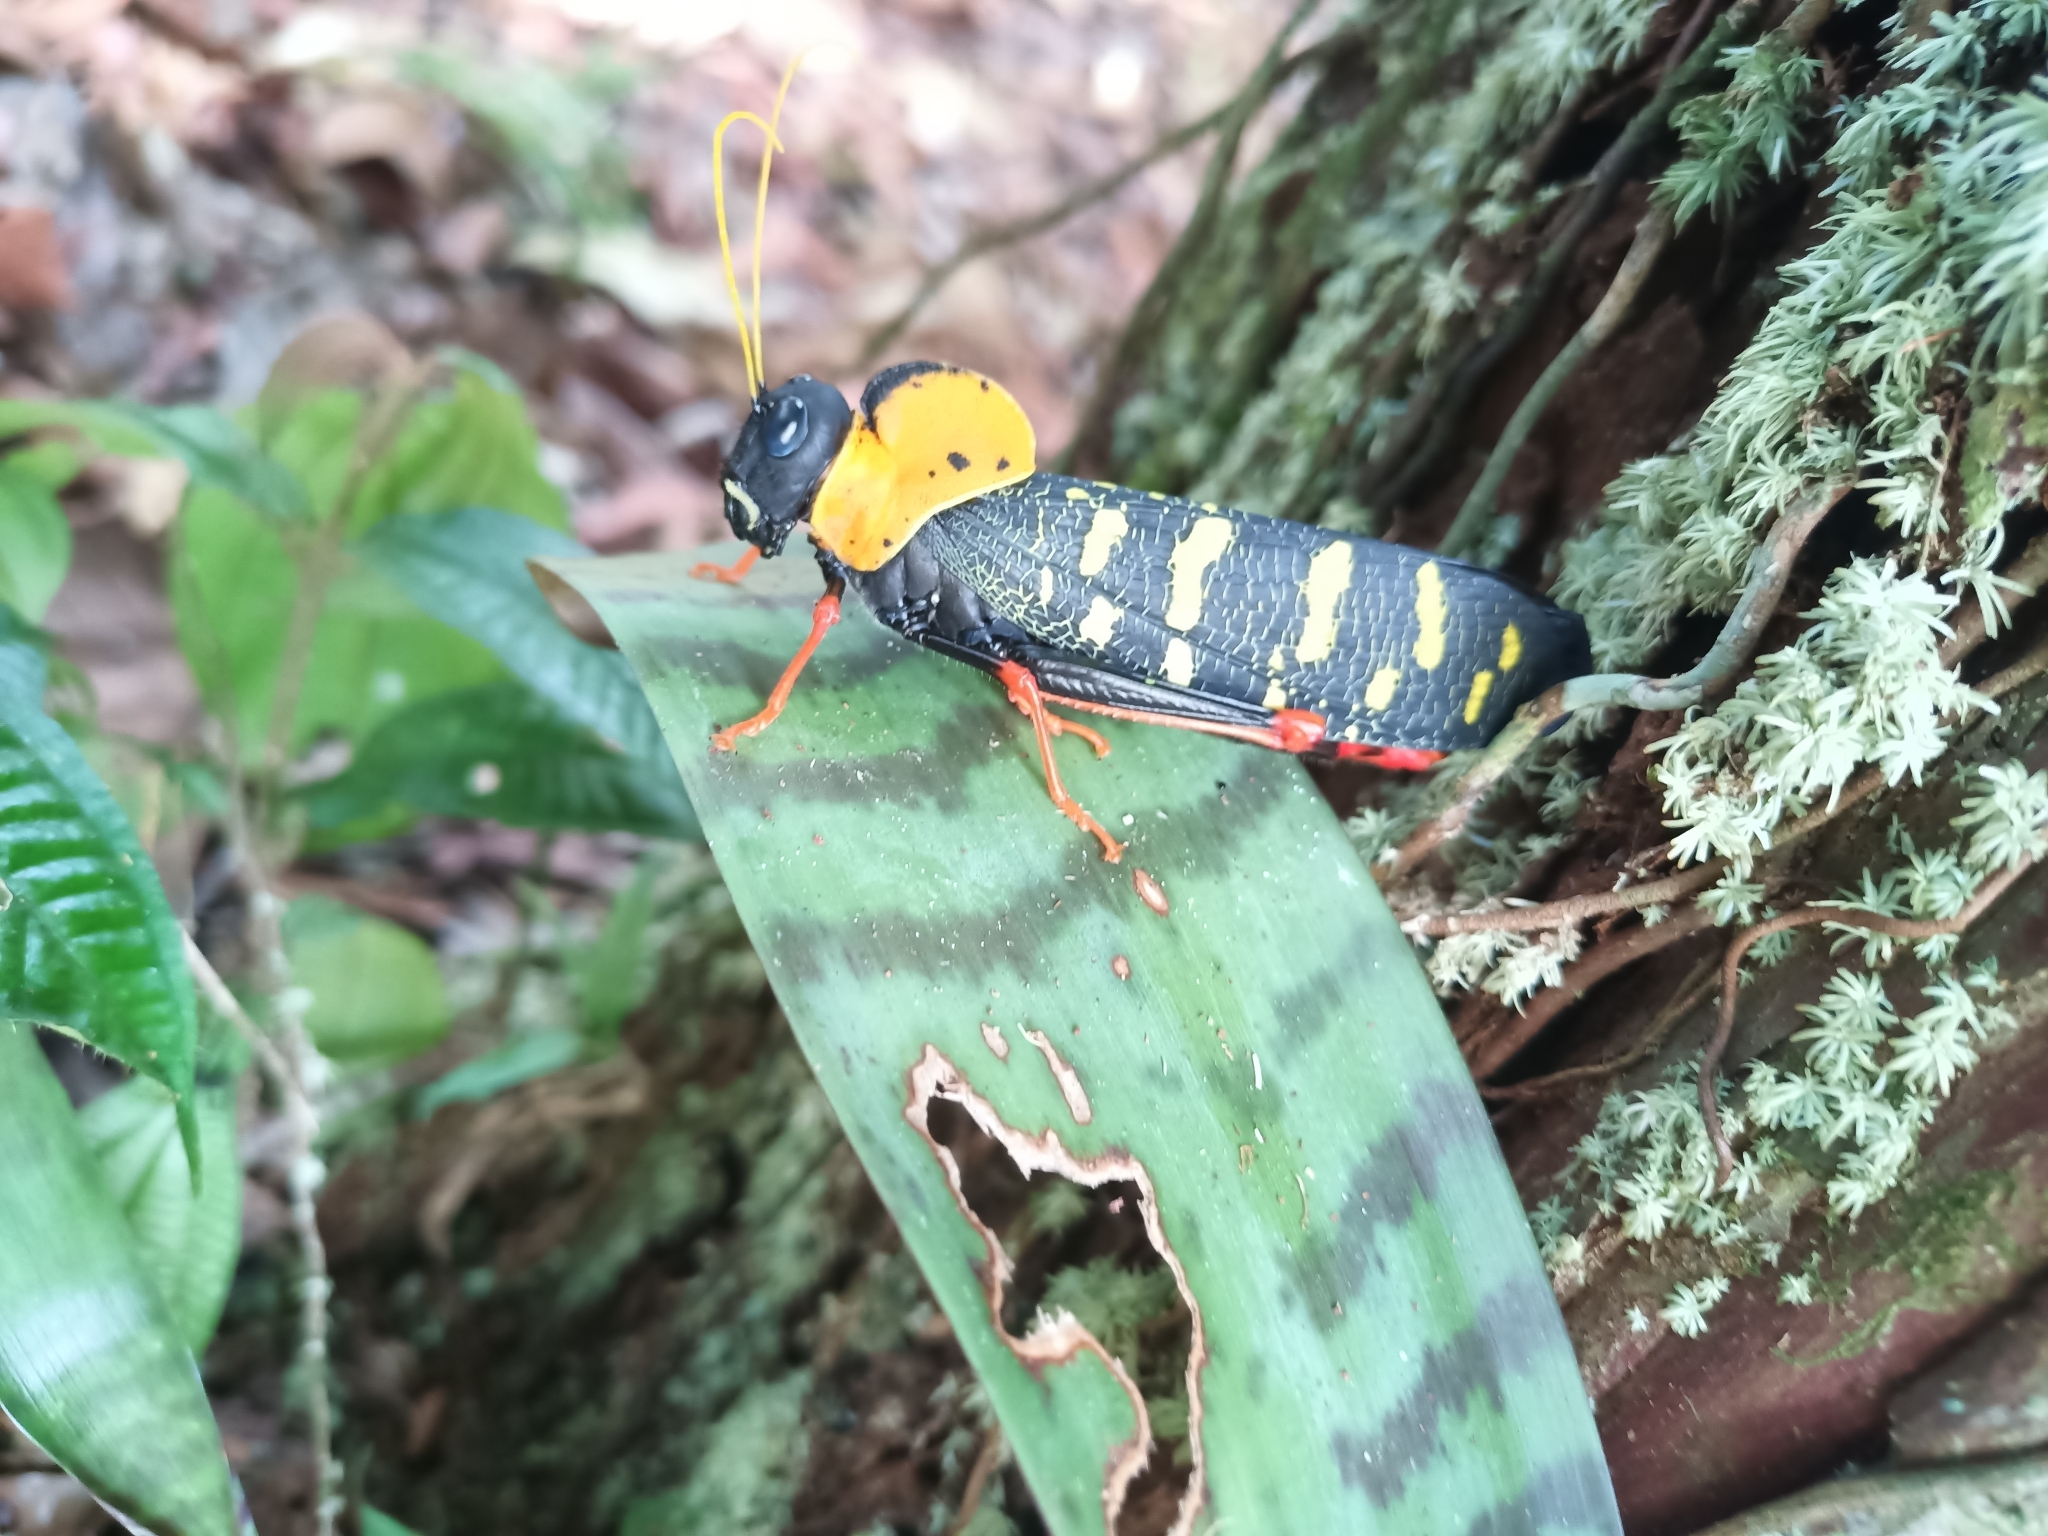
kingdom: Animalia
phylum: Arthropoda
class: Insecta
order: Orthoptera
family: Acrididae
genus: Monachidium
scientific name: Monachidium lunum
